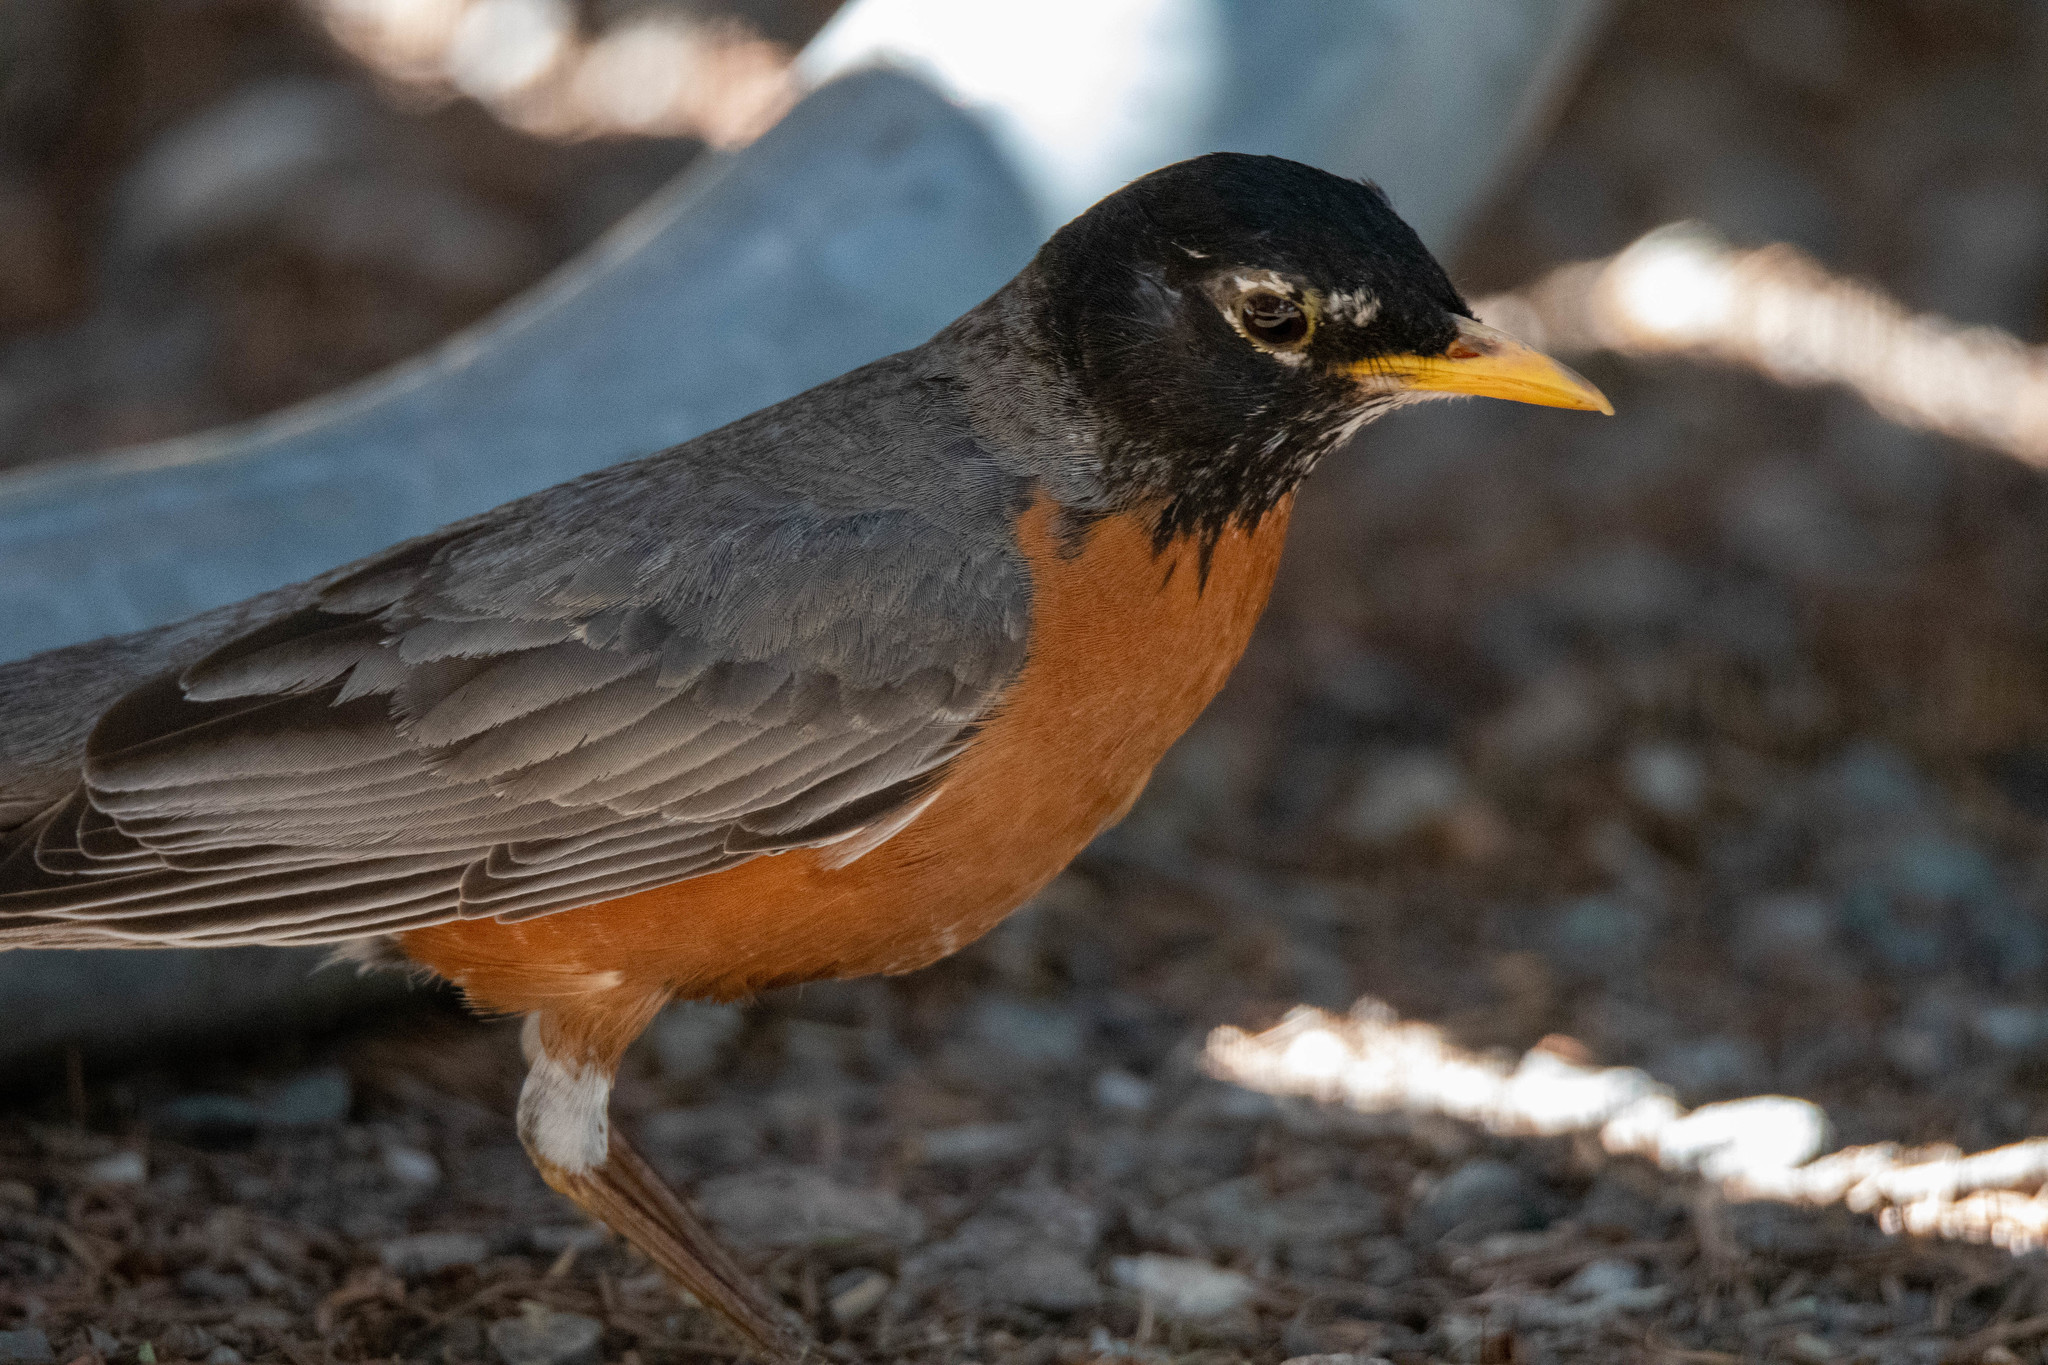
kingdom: Animalia
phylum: Chordata
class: Aves
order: Passeriformes
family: Turdidae
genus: Turdus
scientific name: Turdus migratorius
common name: American robin
